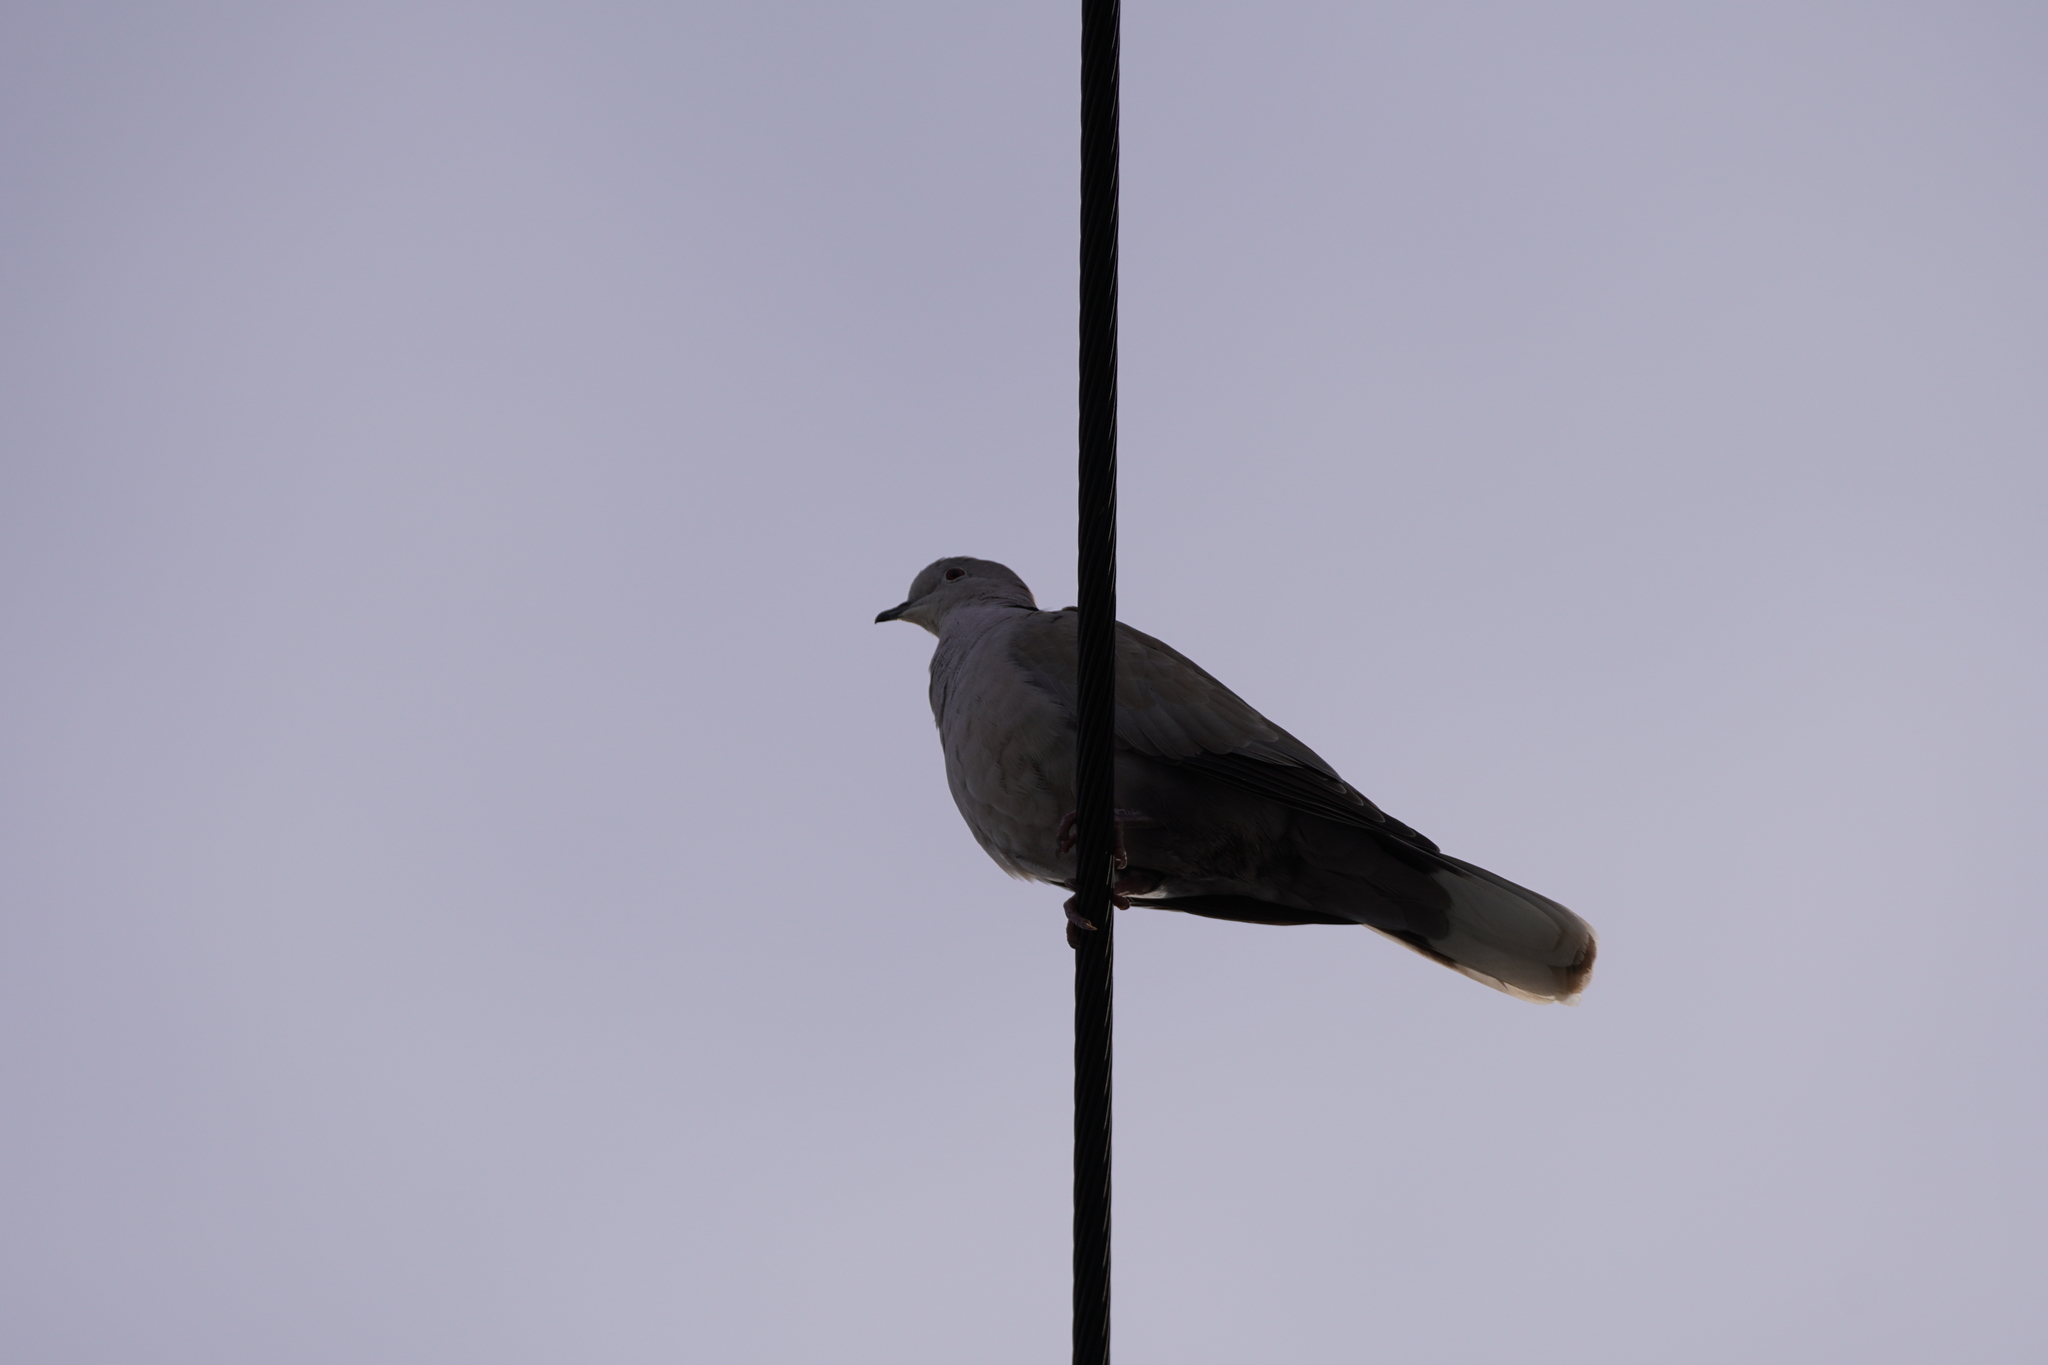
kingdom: Animalia
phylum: Chordata
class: Aves
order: Columbiformes
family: Columbidae
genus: Streptopelia
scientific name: Streptopelia decaocto
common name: Eurasian collared dove
